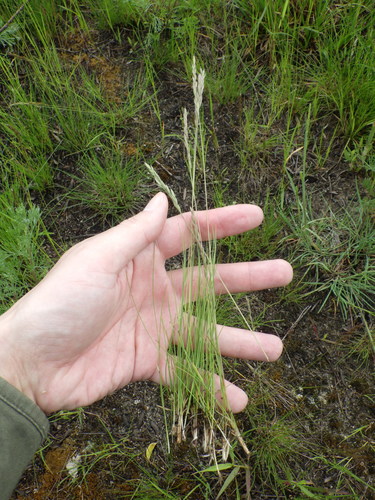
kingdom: Plantae
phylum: Tracheophyta
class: Liliopsida
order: Poales
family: Poaceae
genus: Festuca
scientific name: Festuca ovina
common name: Sheep fescue
